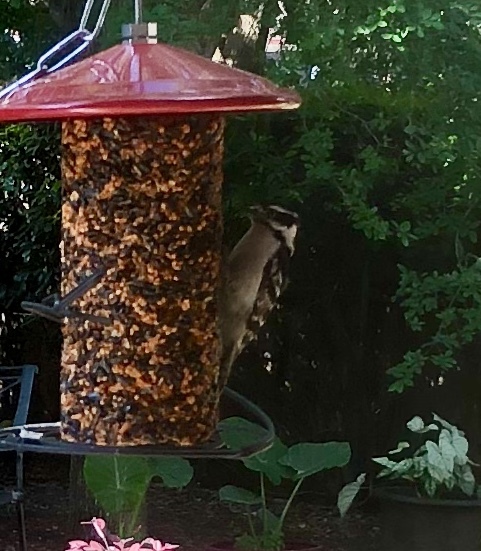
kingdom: Animalia
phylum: Chordata
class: Aves
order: Piciformes
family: Picidae
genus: Dryobates
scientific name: Dryobates pubescens
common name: Downy woodpecker
